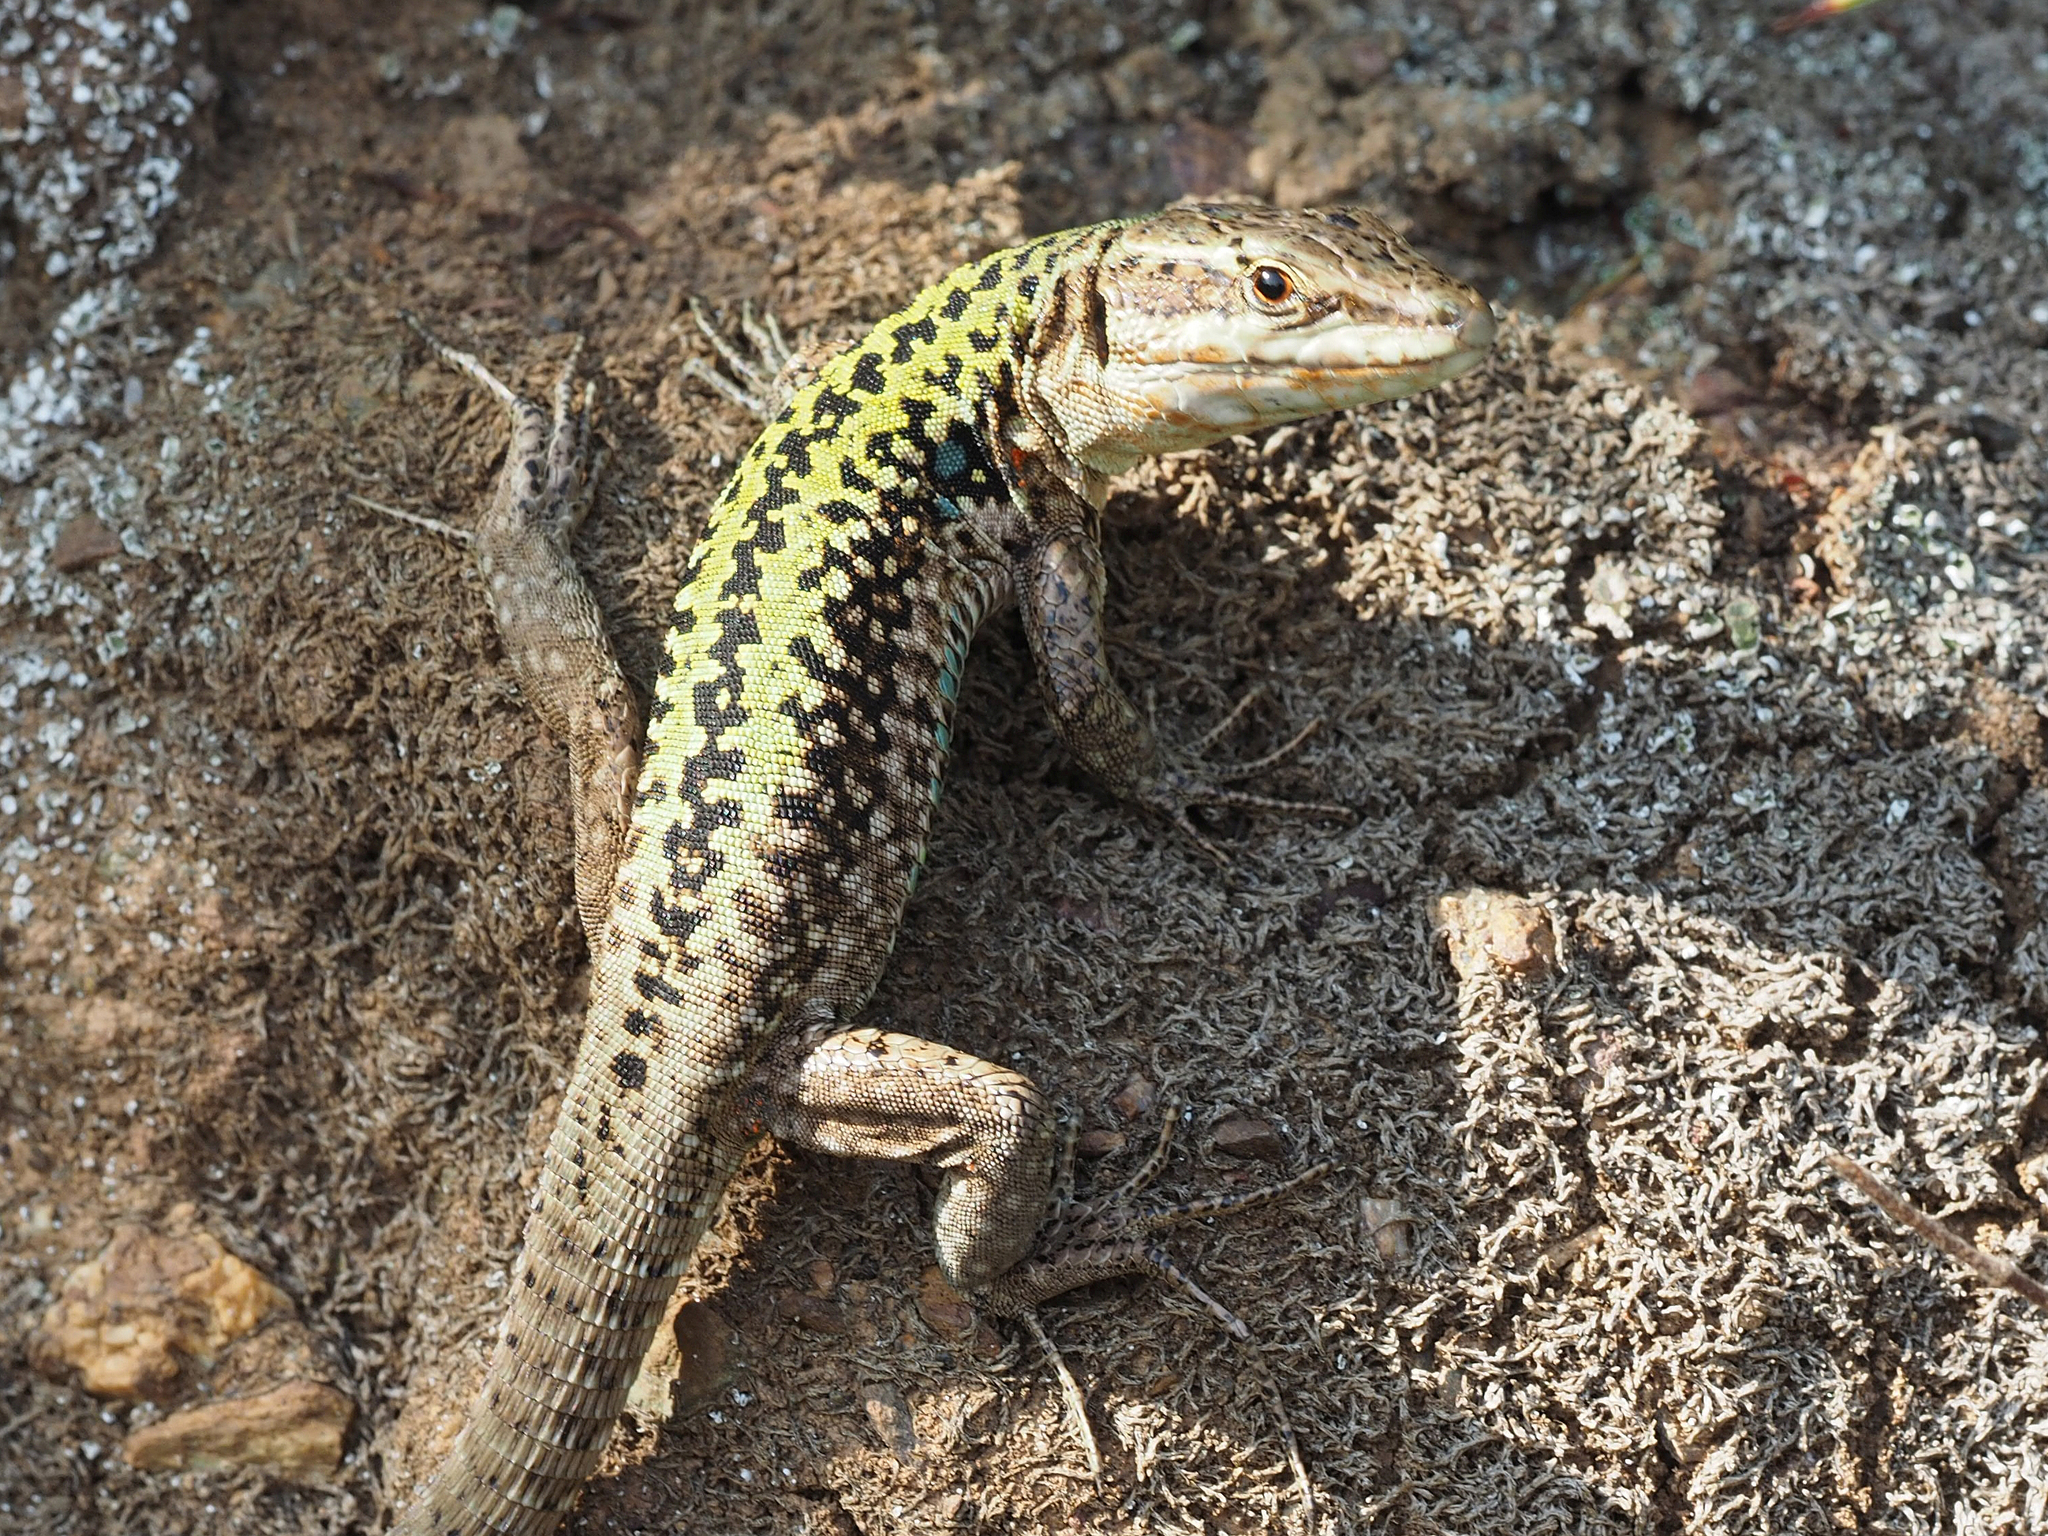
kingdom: Animalia
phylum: Chordata
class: Squamata
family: Lacertidae
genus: Podarcis
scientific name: Podarcis siculus
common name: Italian wall lizard
